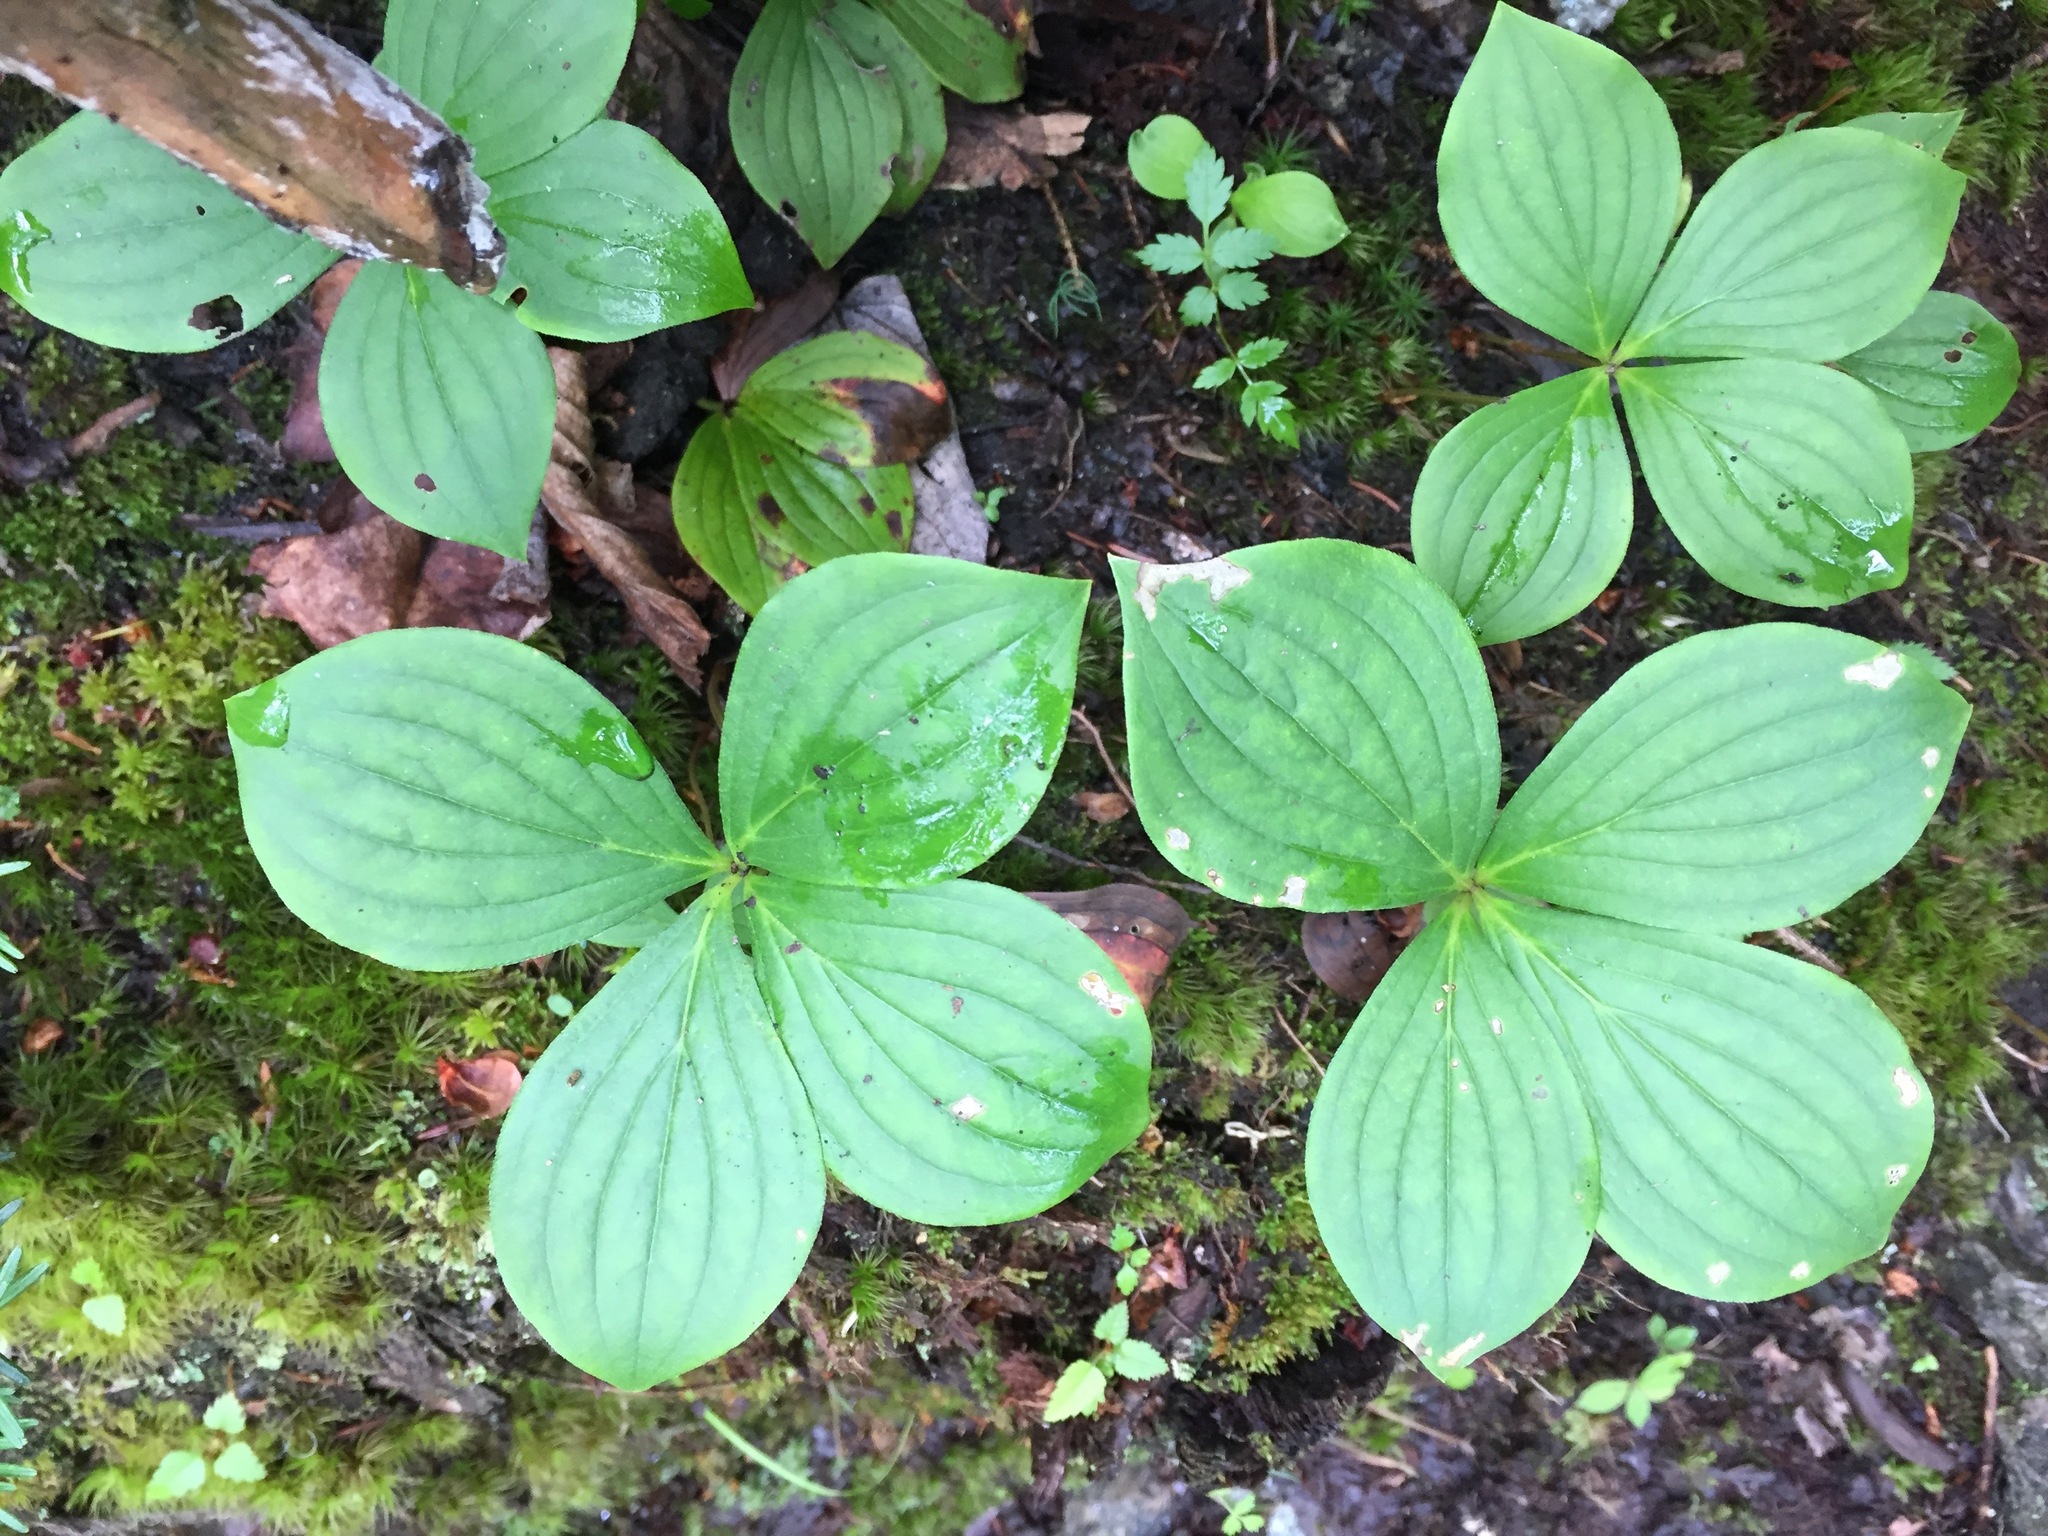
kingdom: Plantae
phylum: Tracheophyta
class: Magnoliopsida
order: Cornales
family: Cornaceae
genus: Cornus
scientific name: Cornus canadensis
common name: Creeping dogwood
